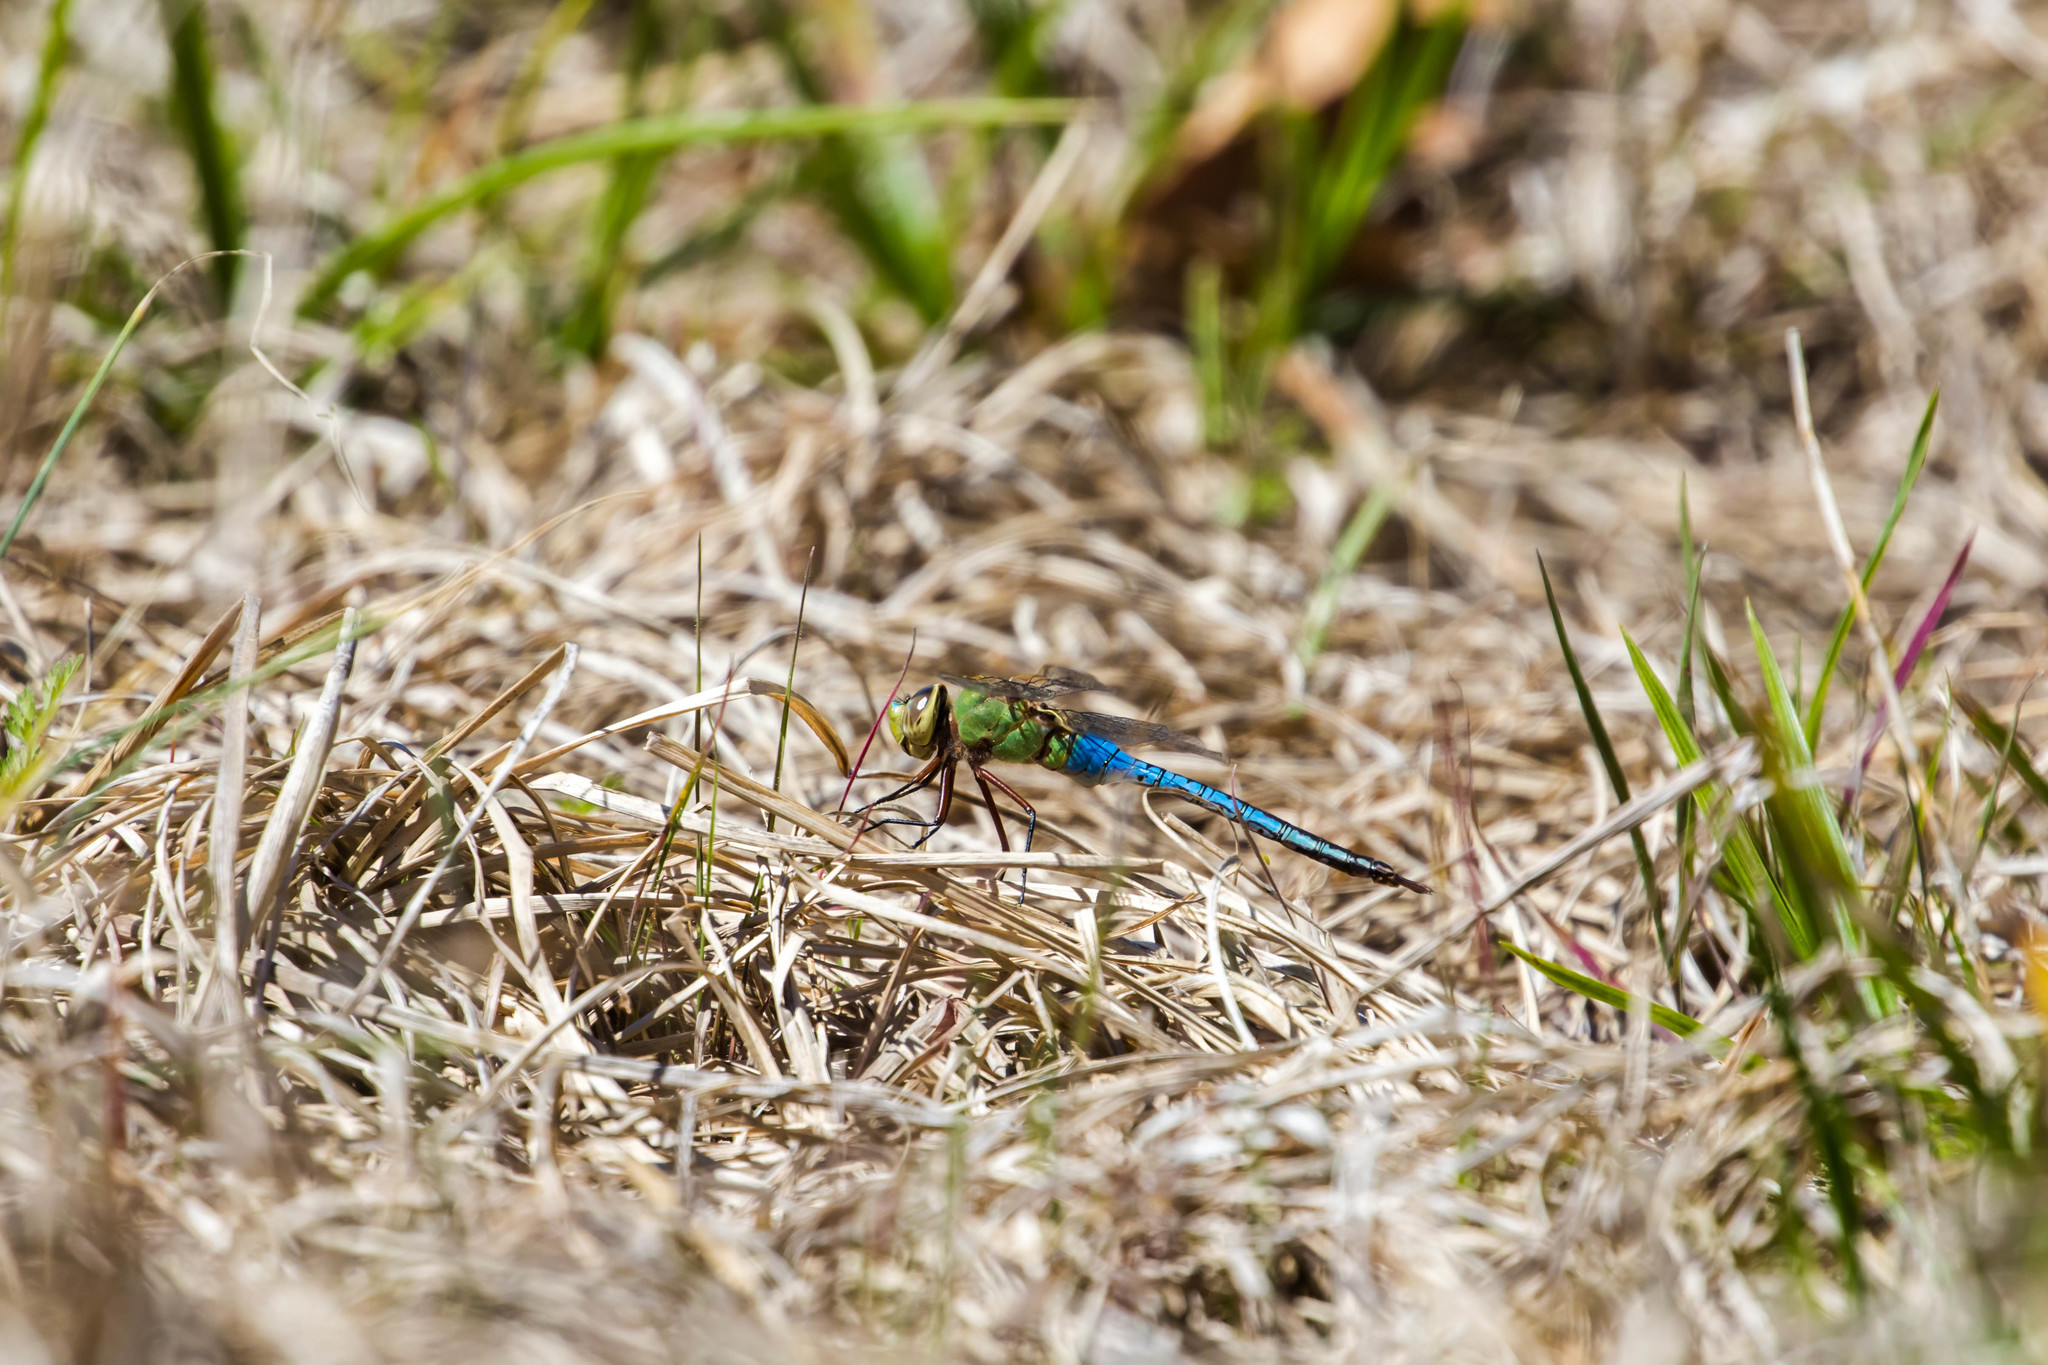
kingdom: Animalia
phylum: Arthropoda
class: Insecta
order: Odonata
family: Aeshnidae
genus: Anax
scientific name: Anax junius
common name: Common green darner
